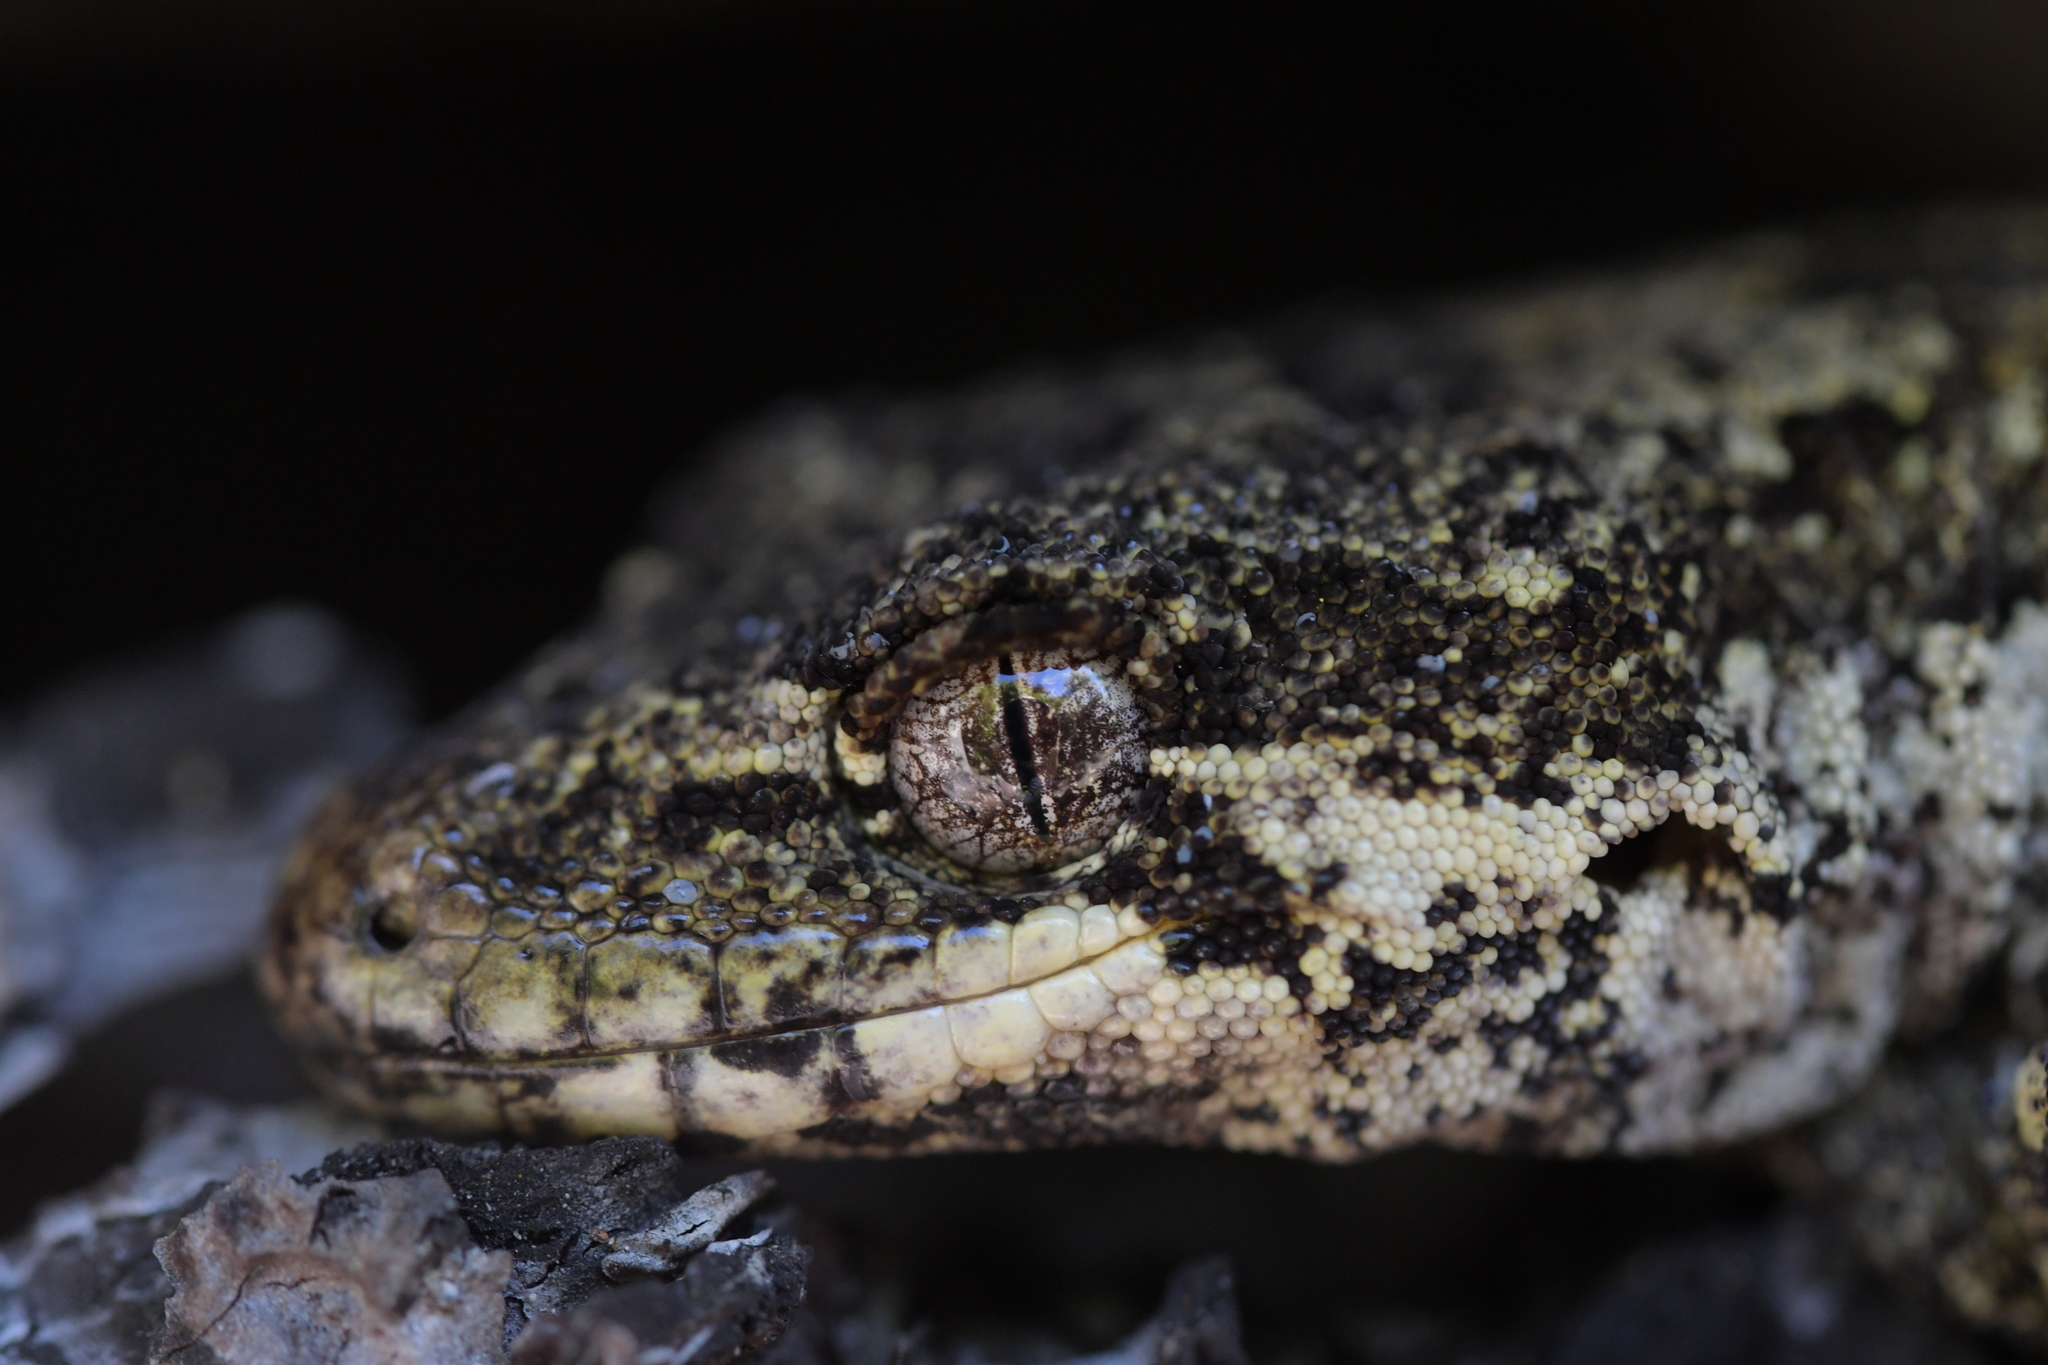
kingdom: Animalia
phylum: Chordata
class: Squamata
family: Diplodactylidae
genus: Mokopirirakau
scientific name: Mokopirirakau
